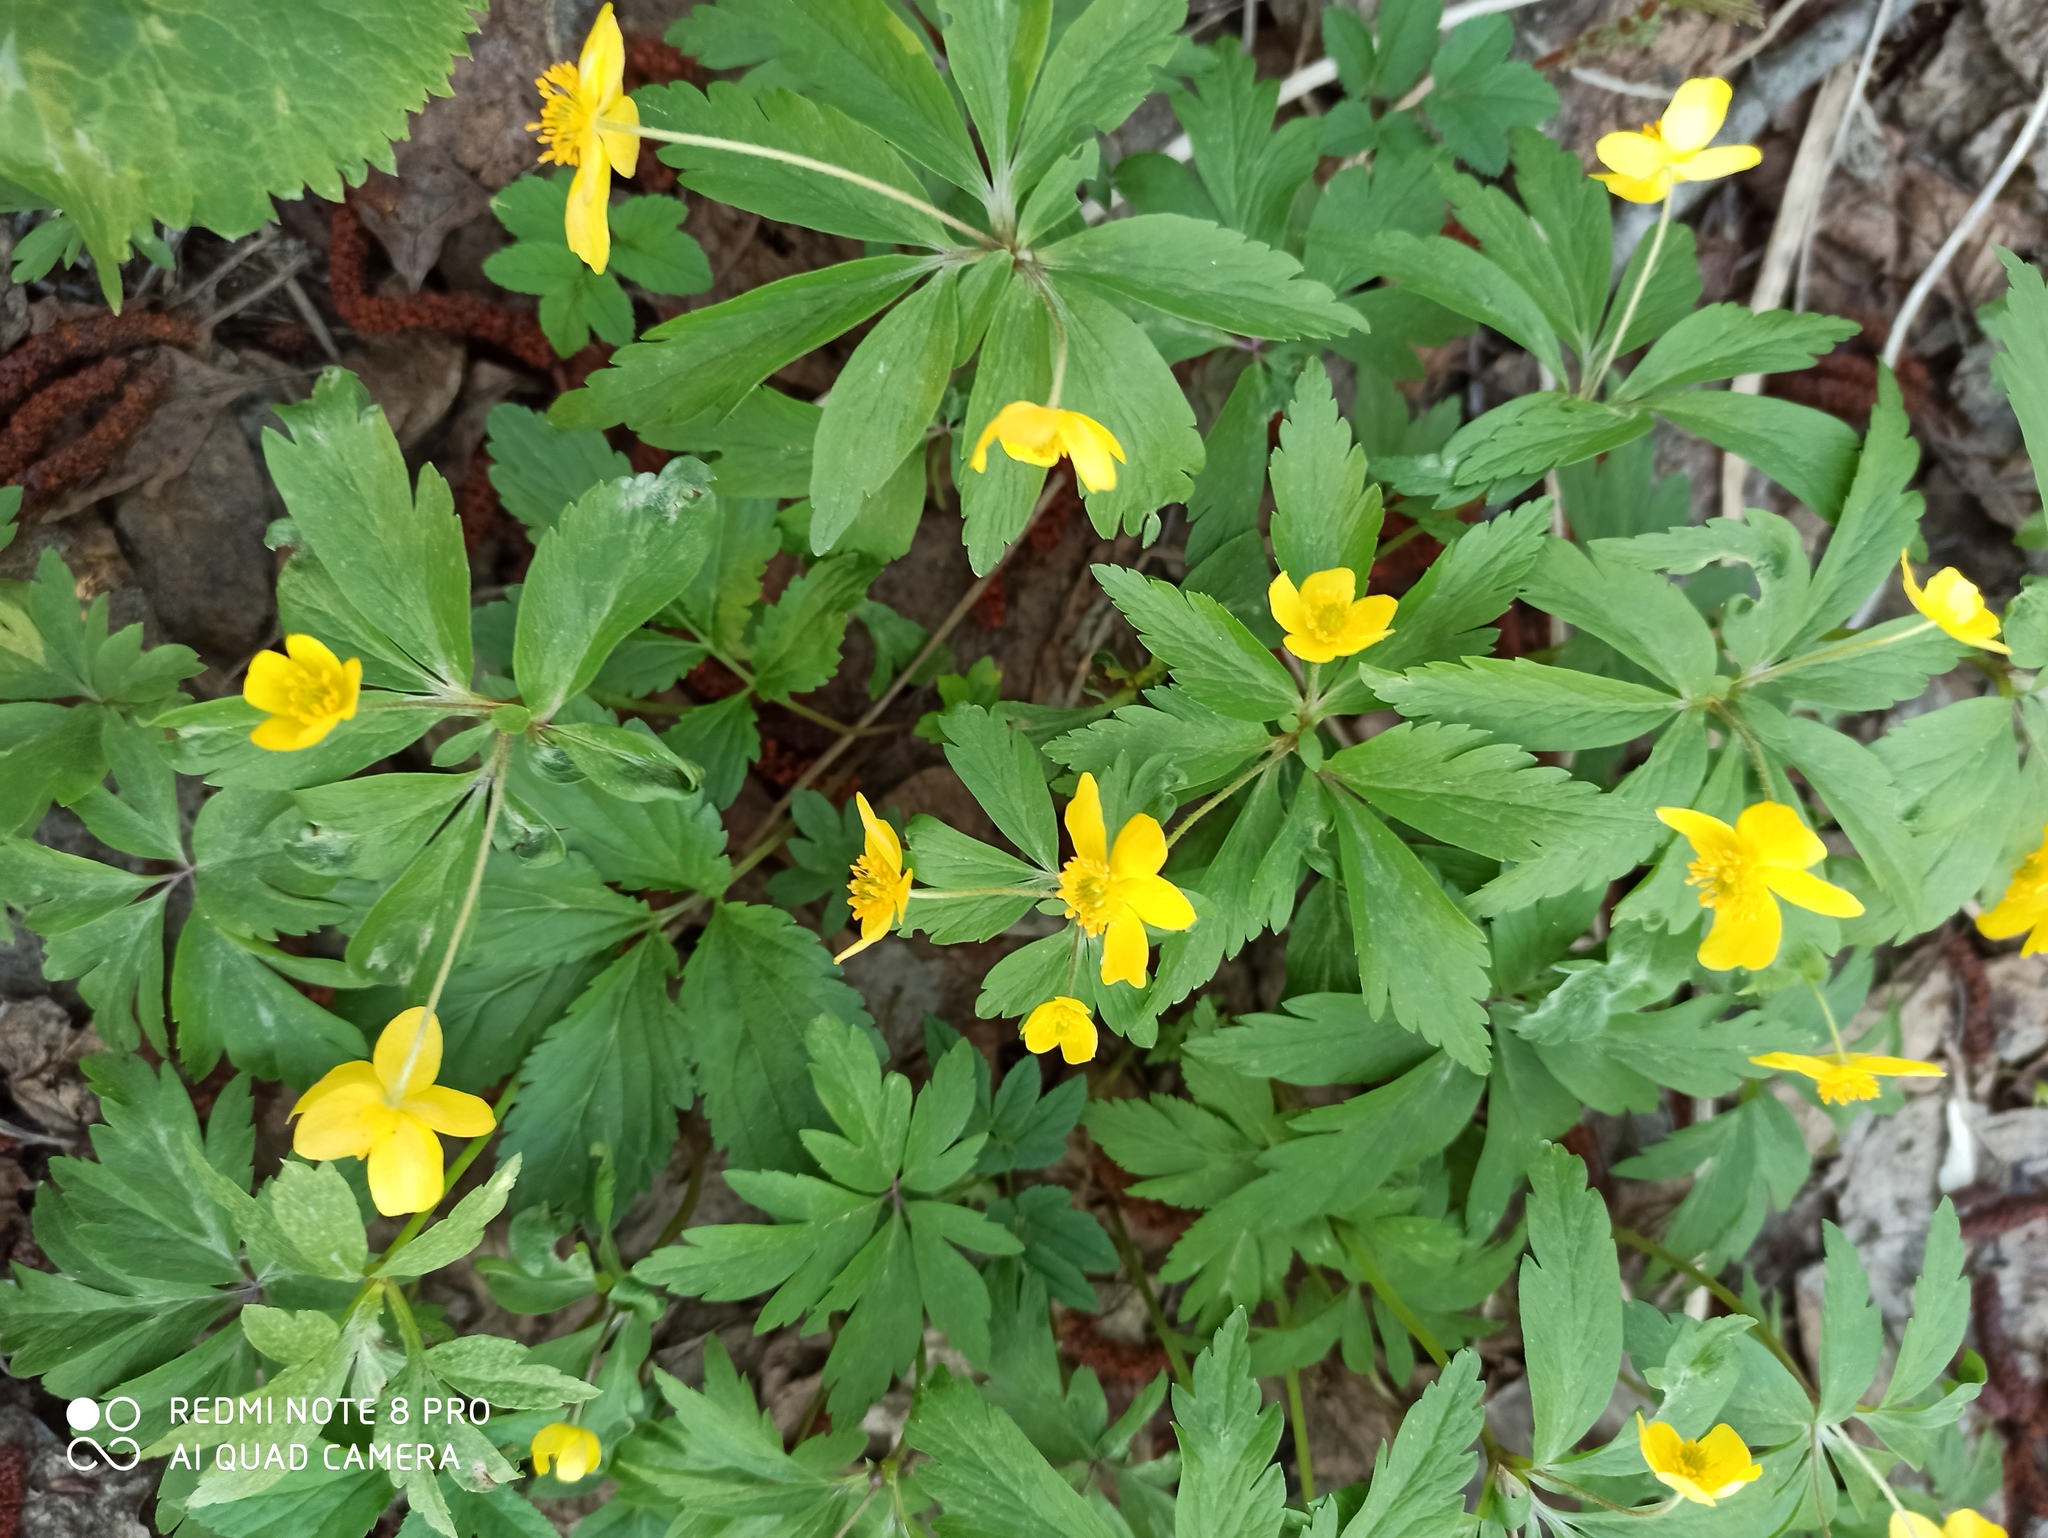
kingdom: Plantae
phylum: Tracheophyta
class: Magnoliopsida
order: Ranunculales
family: Ranunculaceae
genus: Anemone
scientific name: Anemone ranunculoides
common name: Yellow anemone
